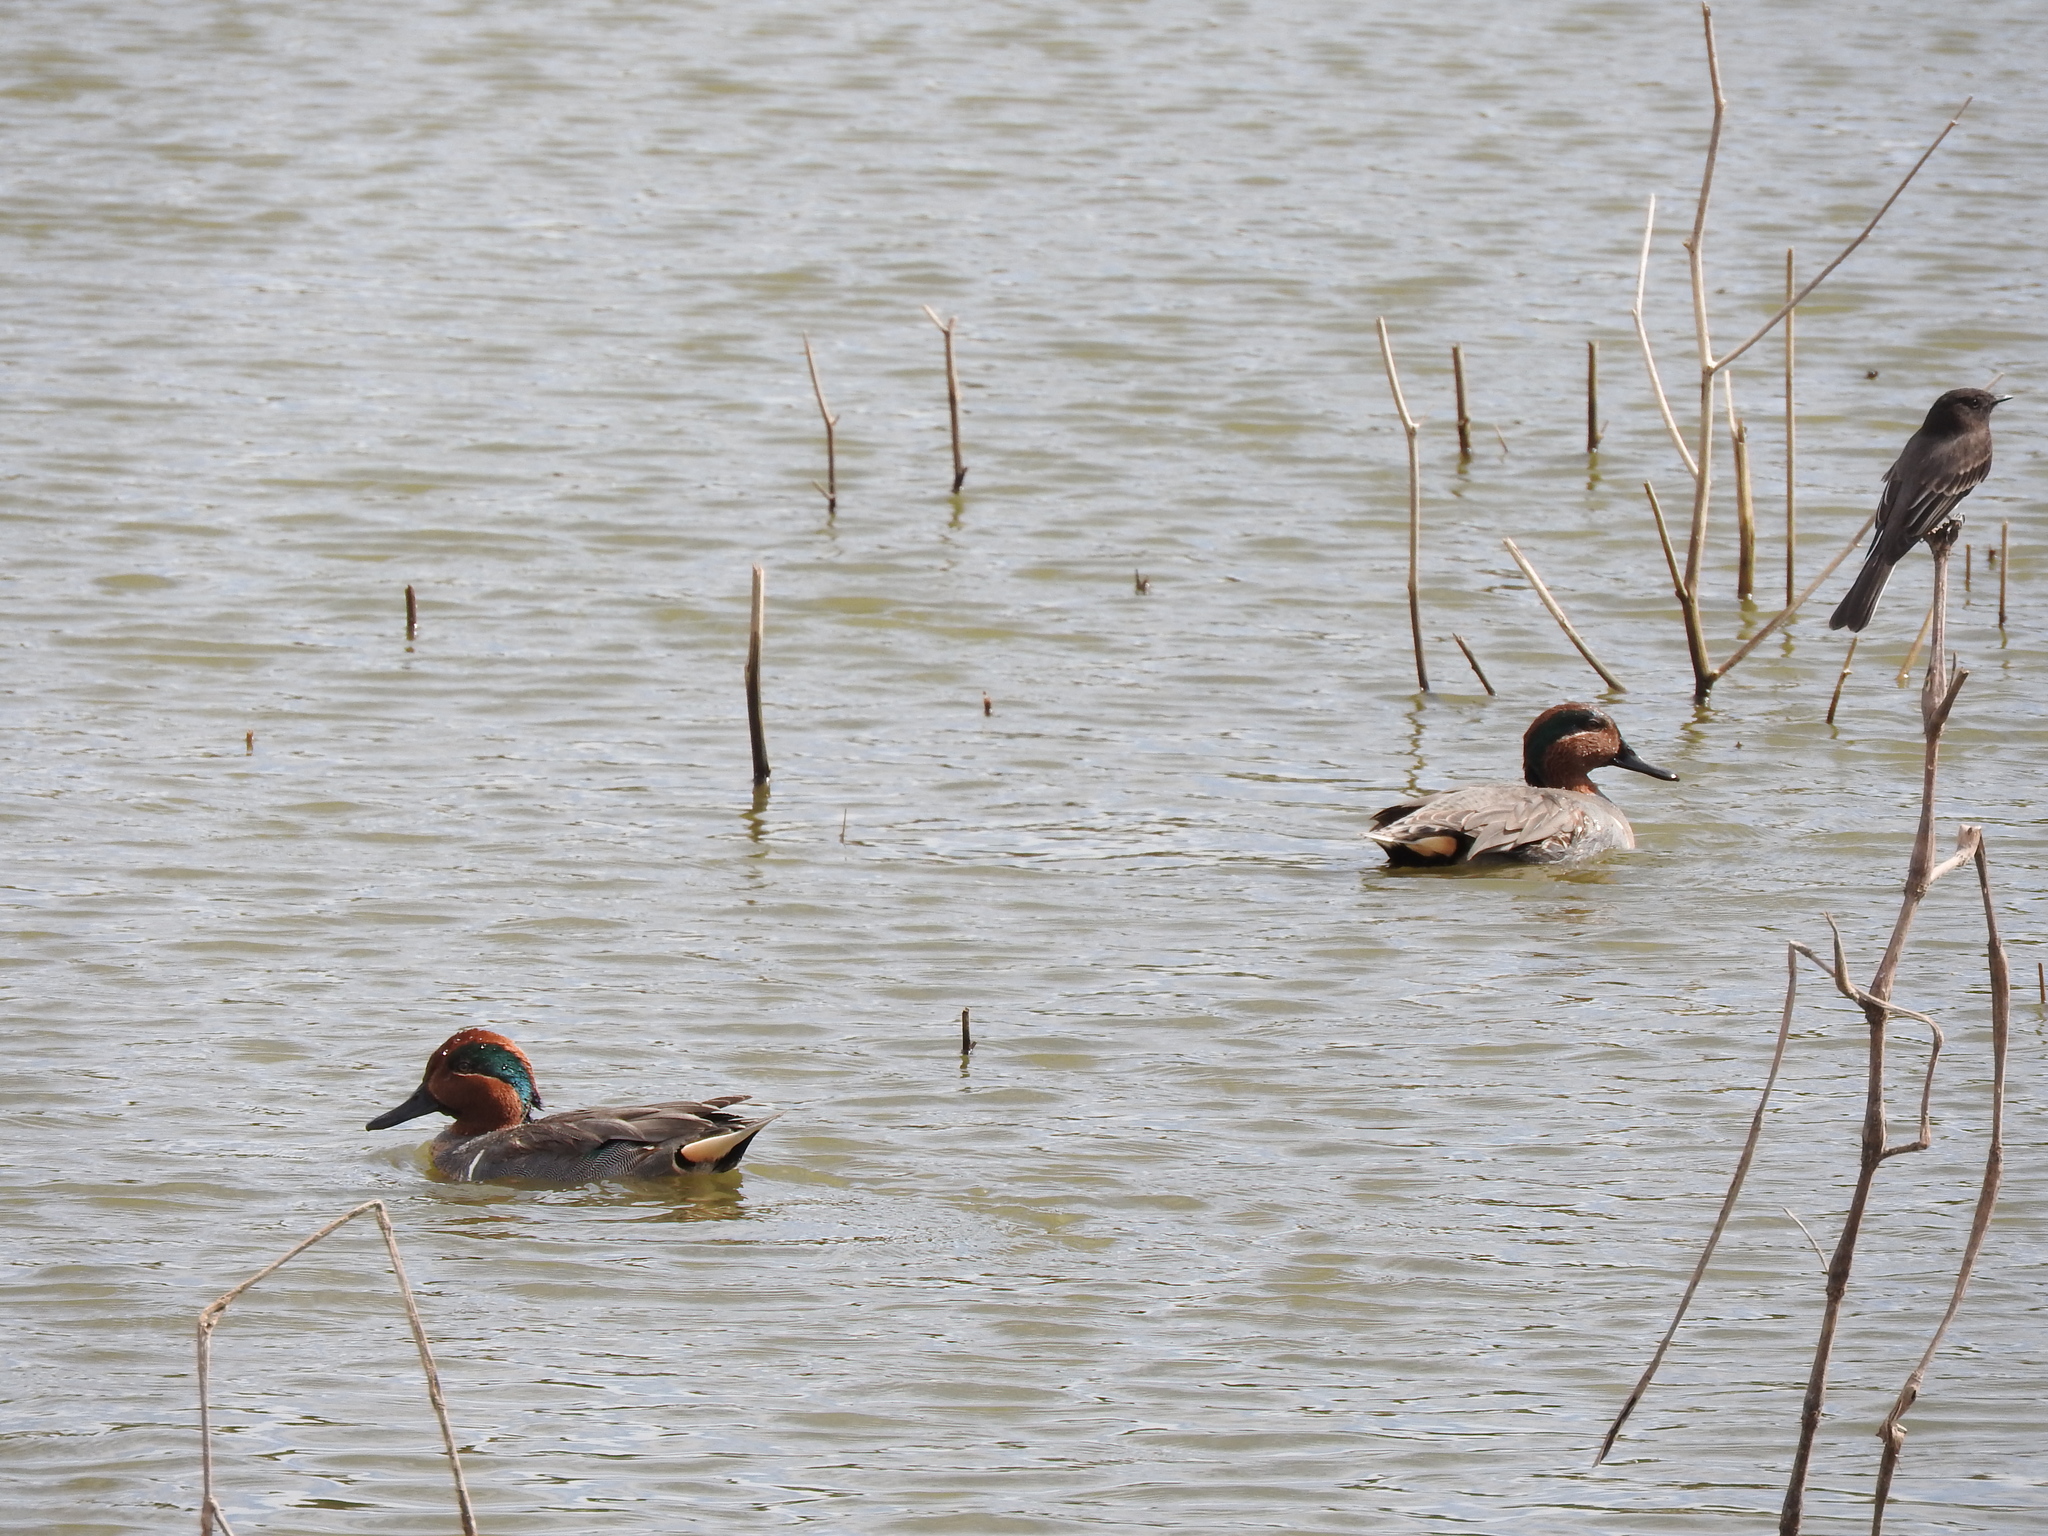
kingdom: Animalia
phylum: Chordata
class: Aves
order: Anseriformes
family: Anatidae
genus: Anas
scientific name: Anas crecca
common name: Eurasian teal
